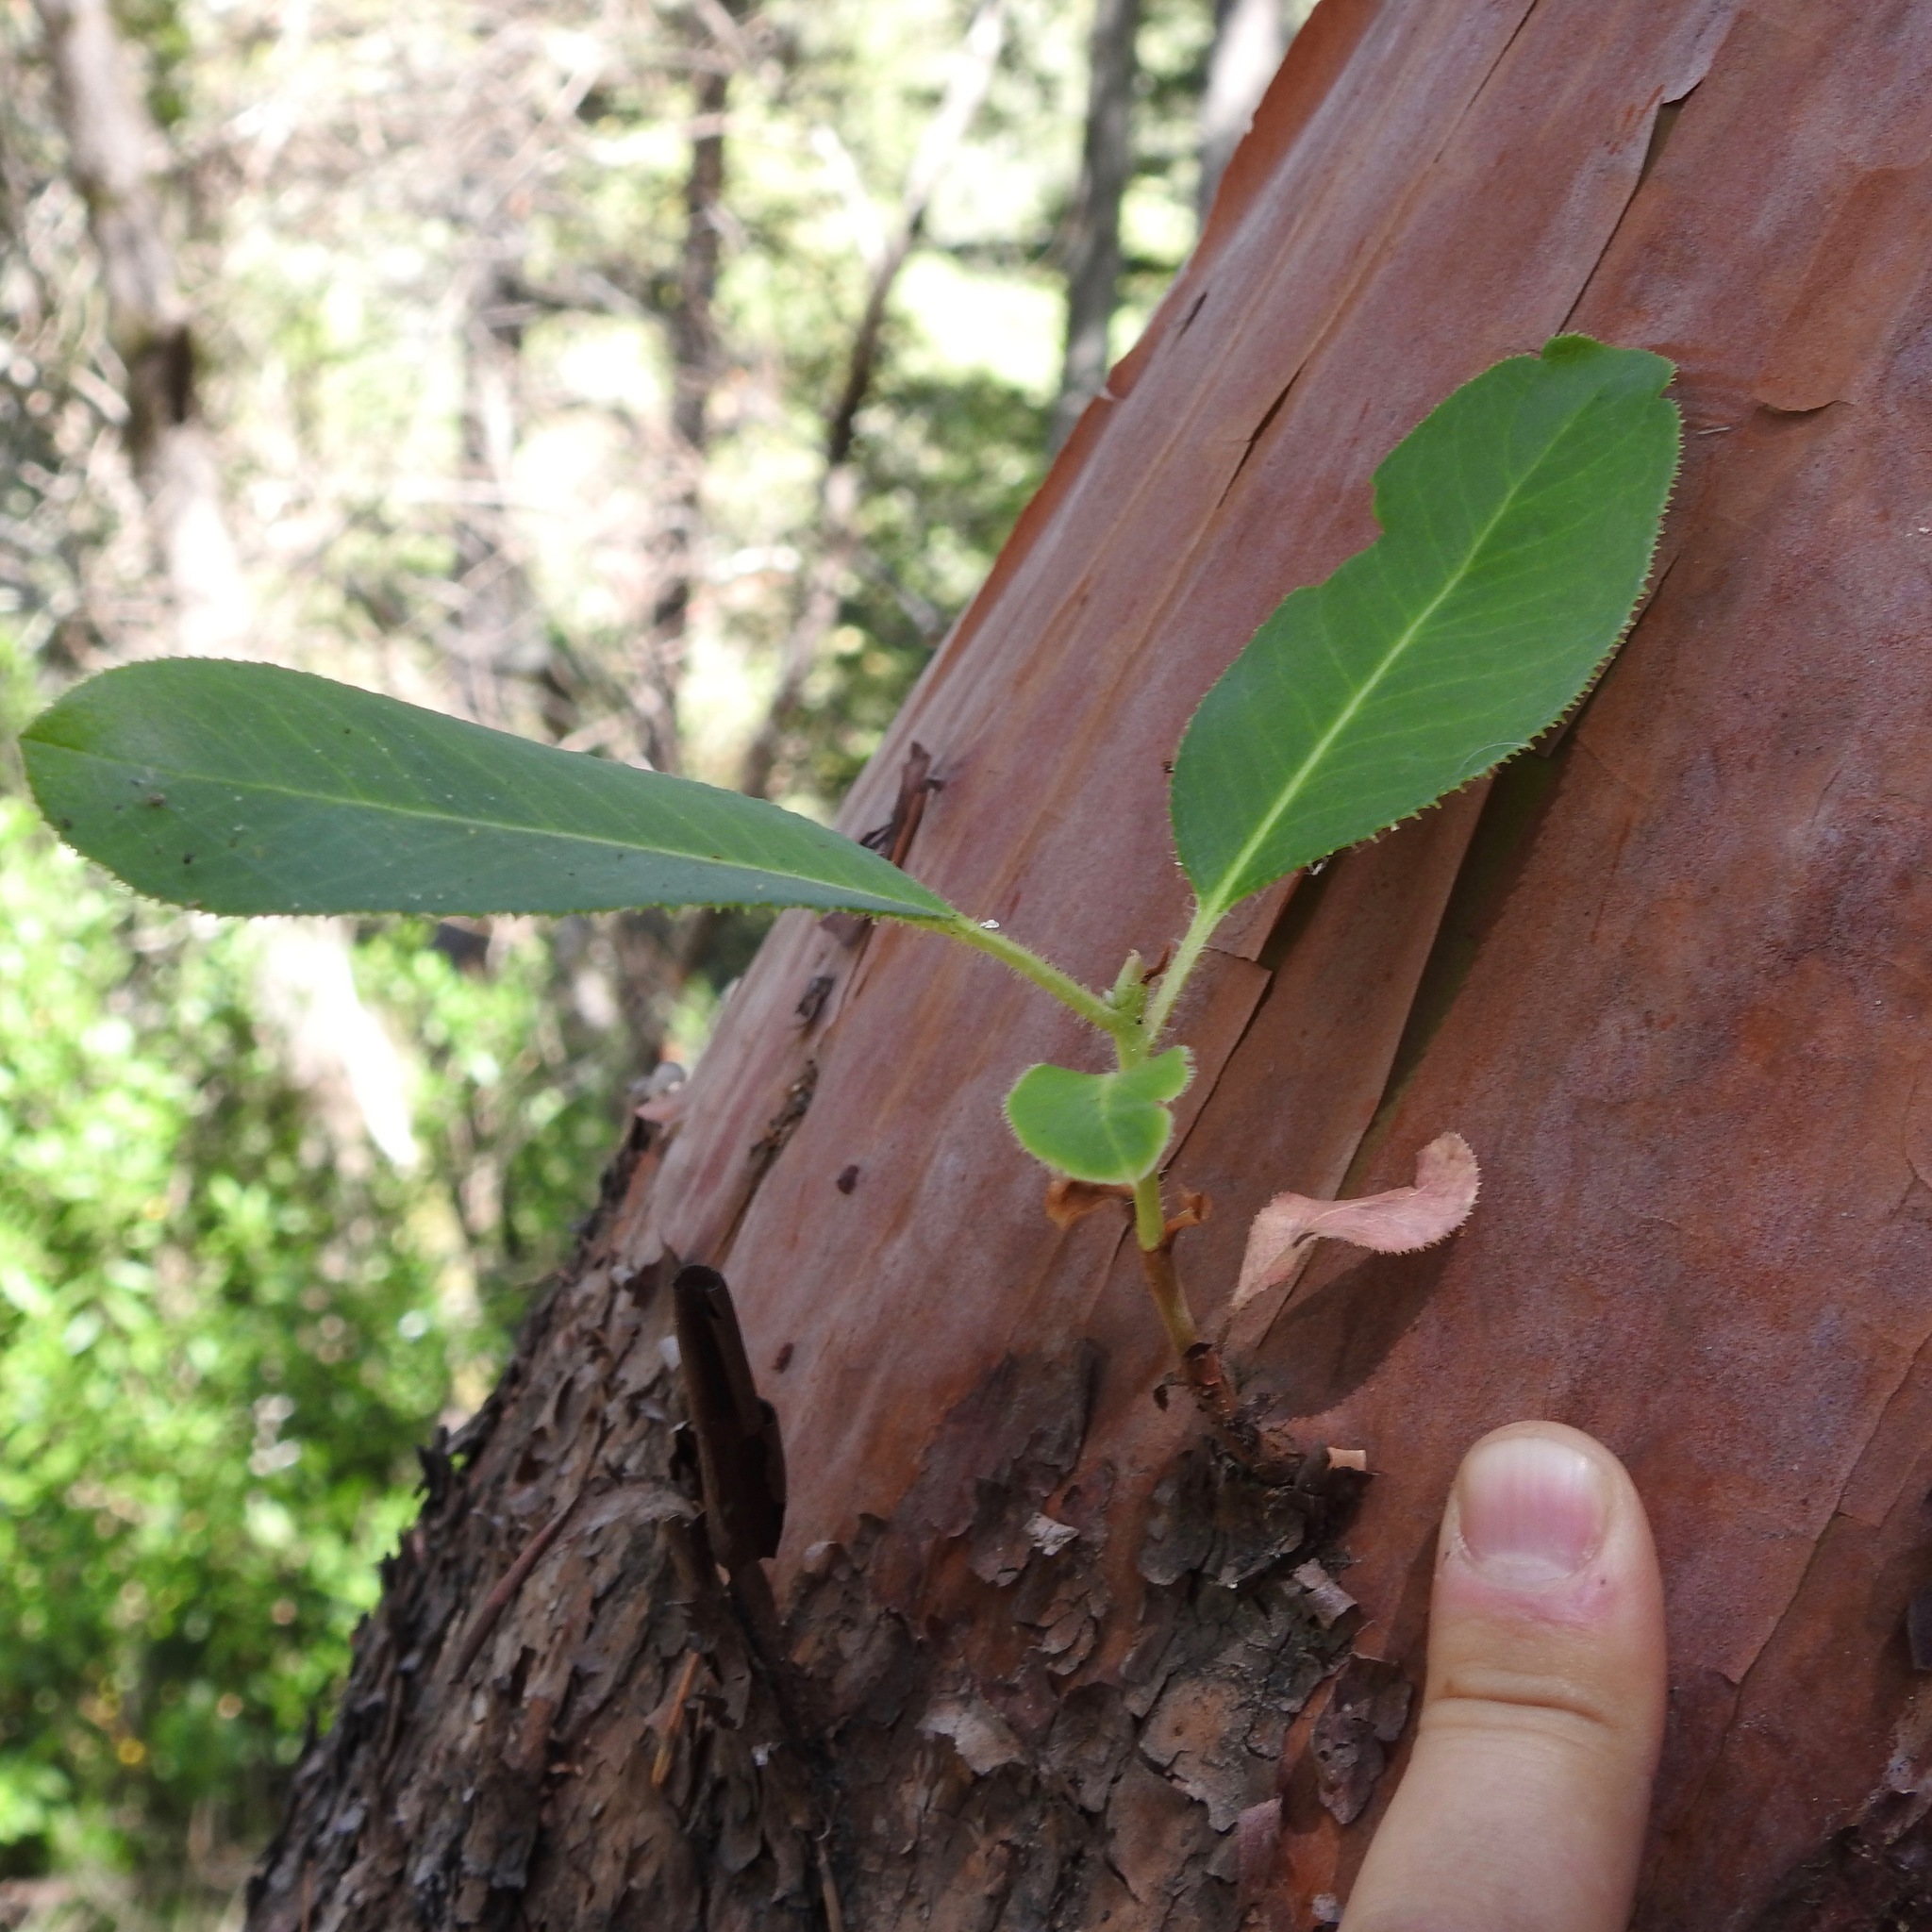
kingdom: Plantae
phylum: Tracheophyta
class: Magnoliopsida
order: Ericales
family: Ericaceae
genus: Arbutus
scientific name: Arbutus menziesii
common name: Pacific madrone
